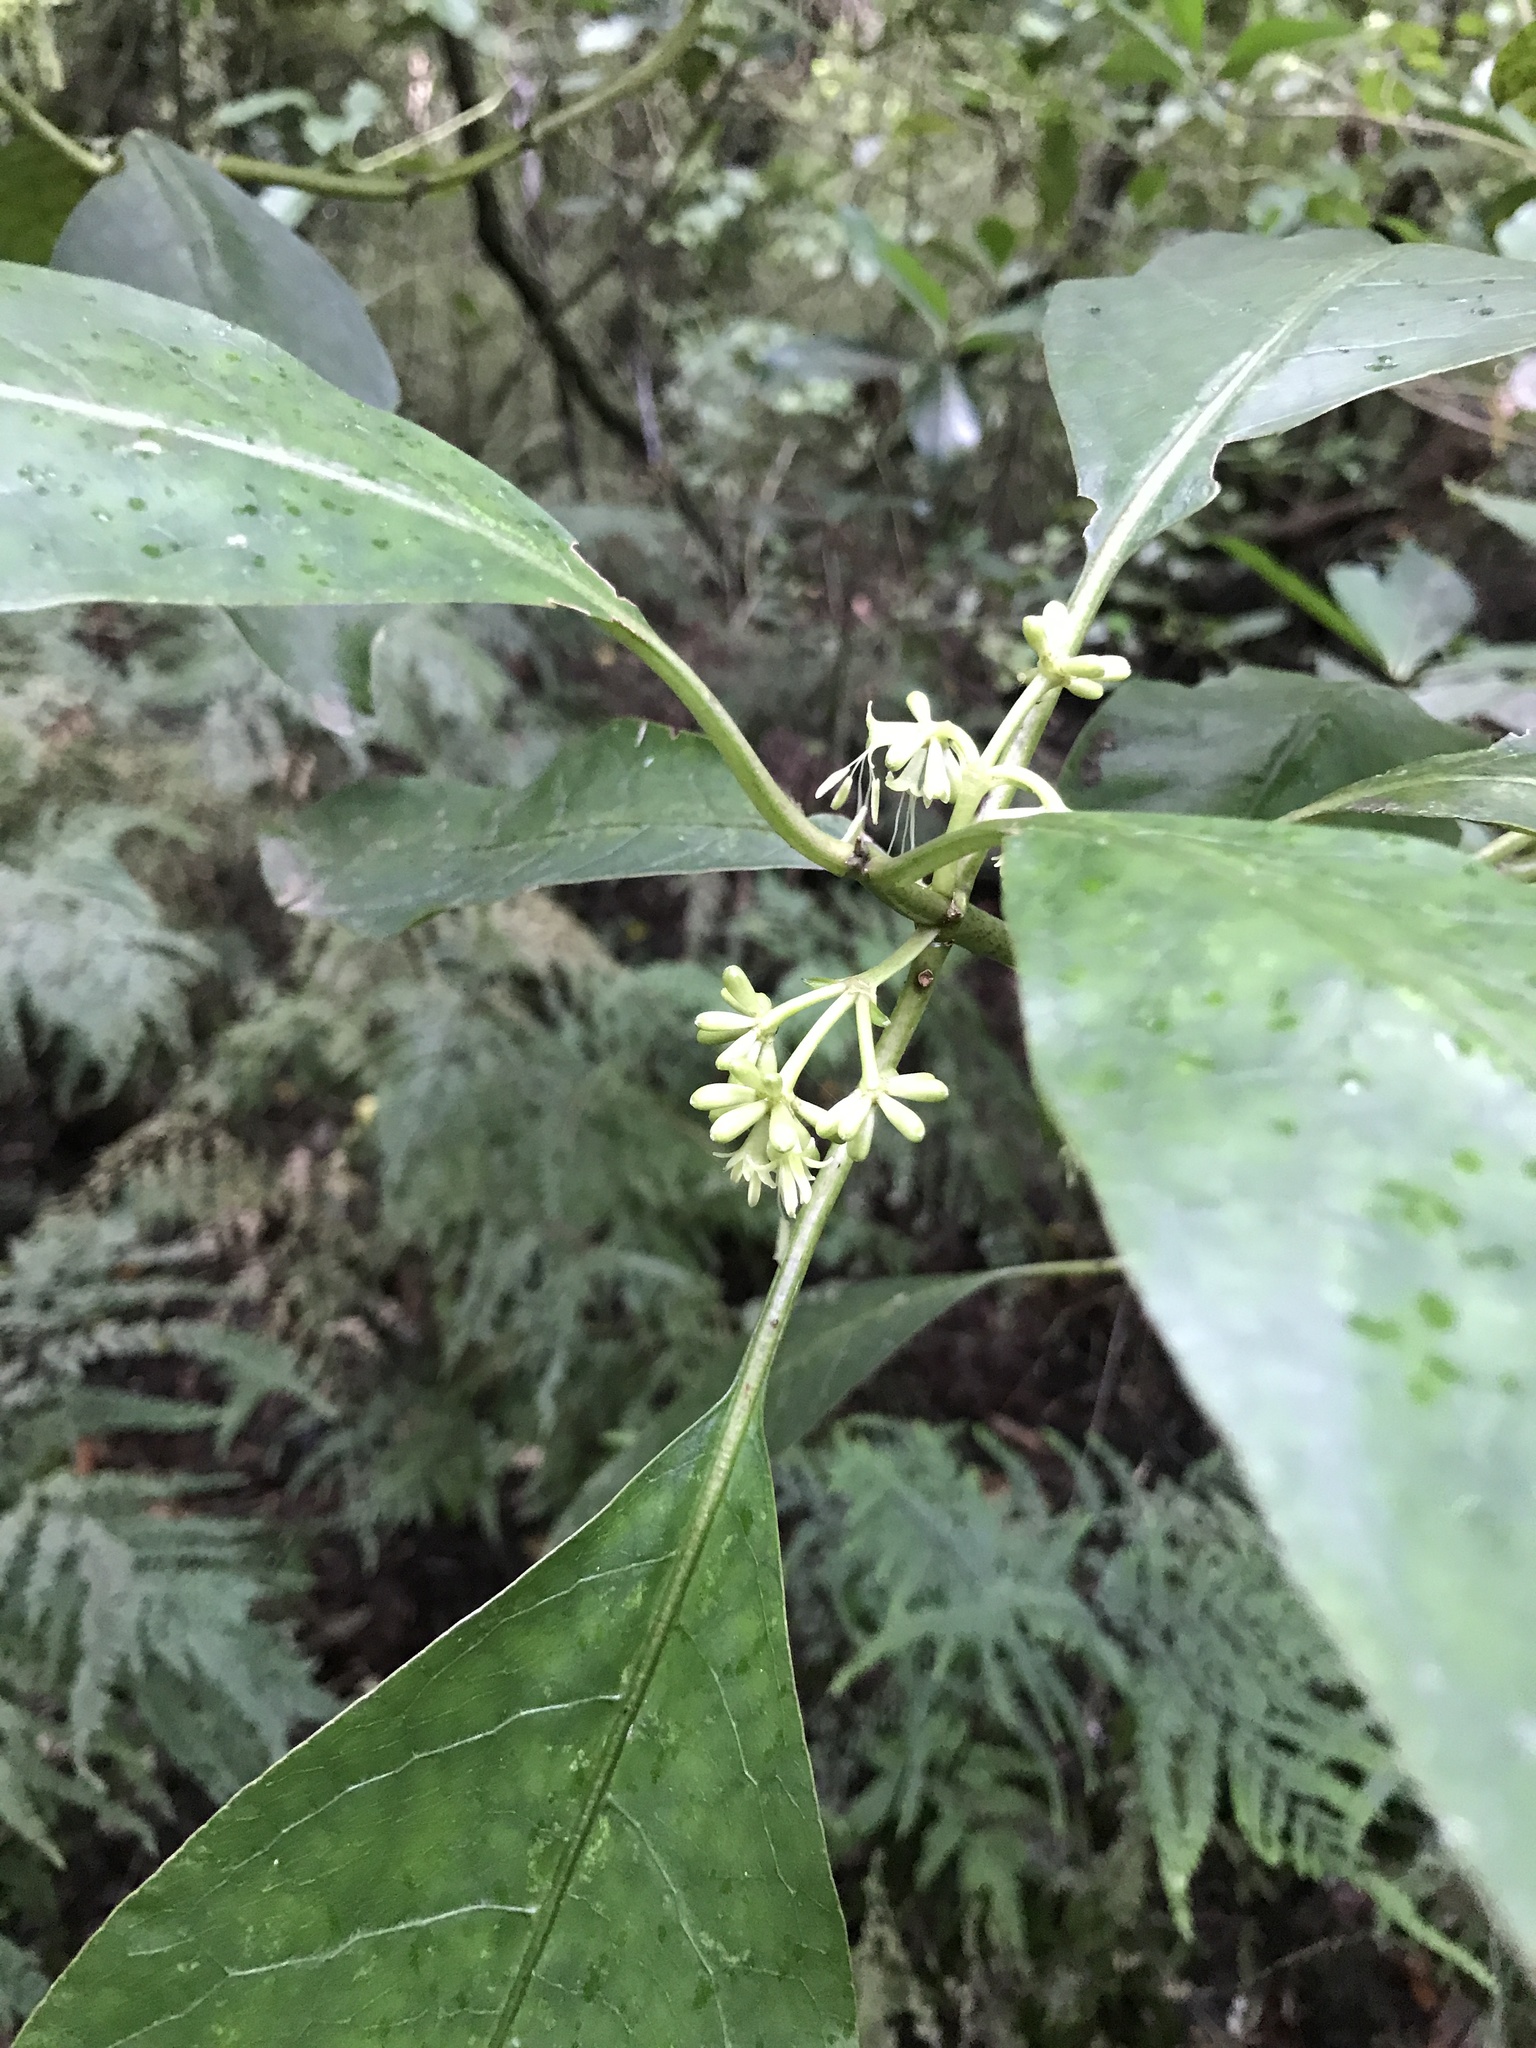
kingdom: Plantae
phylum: Tracheophyta
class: Magnoliopsida
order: Gentianales
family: Rubiaceae
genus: Coprosma
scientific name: Coprosma autumnalis
